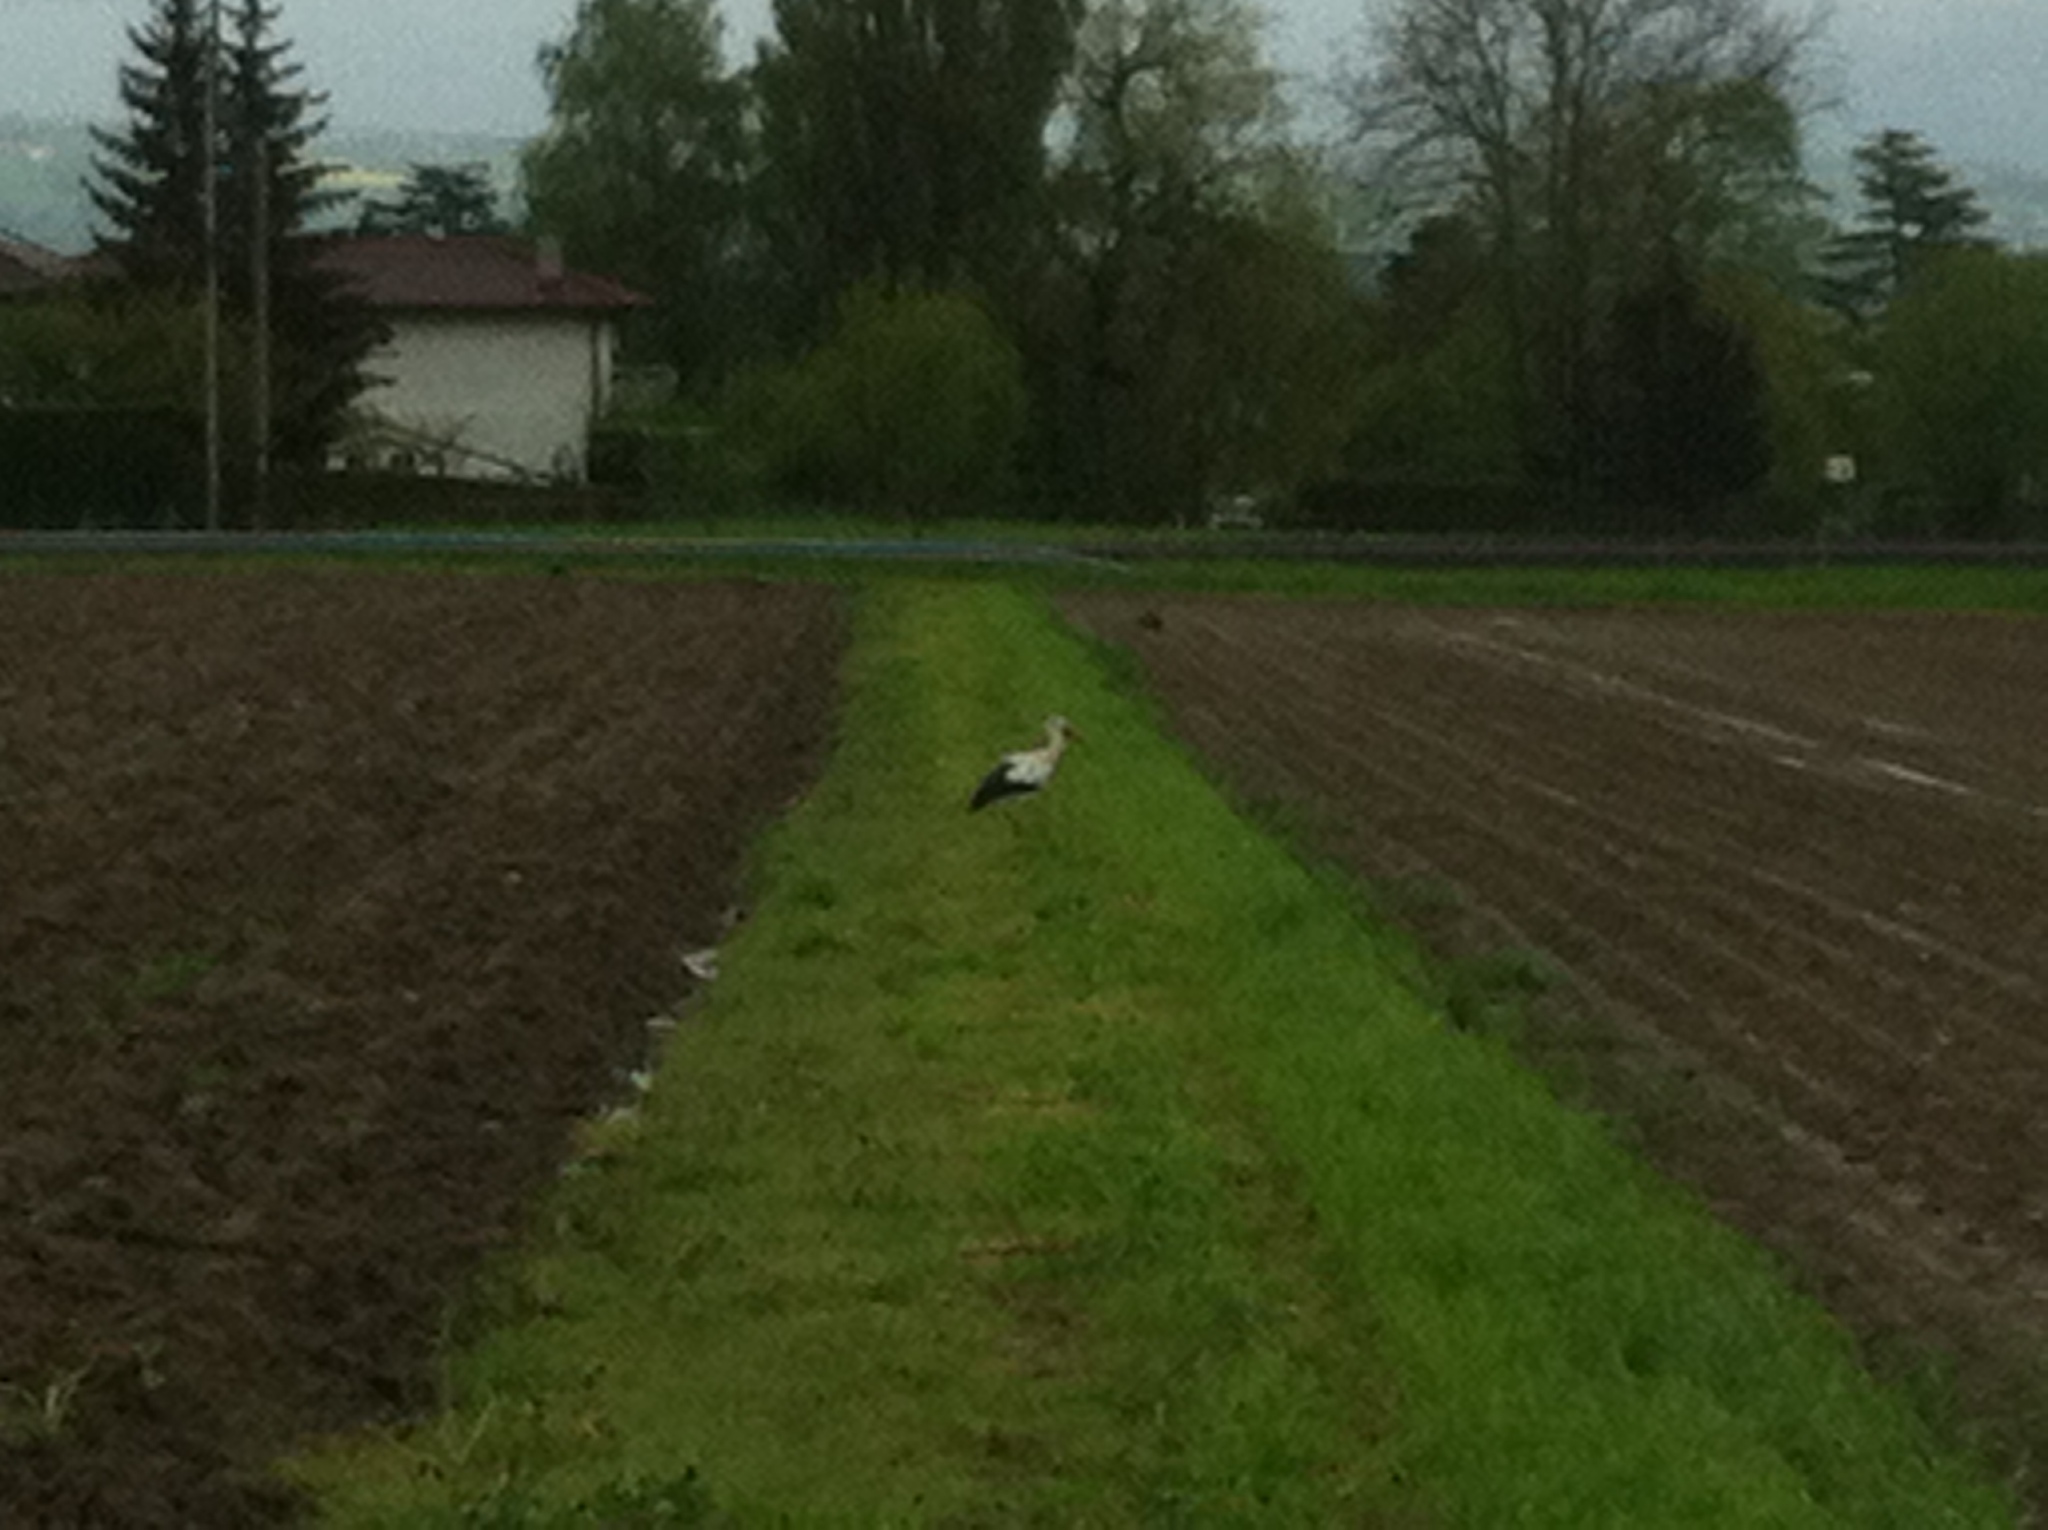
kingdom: Animalia
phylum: Chordata
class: Aves
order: Ciconiiformes
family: Ciconiidae
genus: Ciconia
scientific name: Ciconia ciconia
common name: White stork
